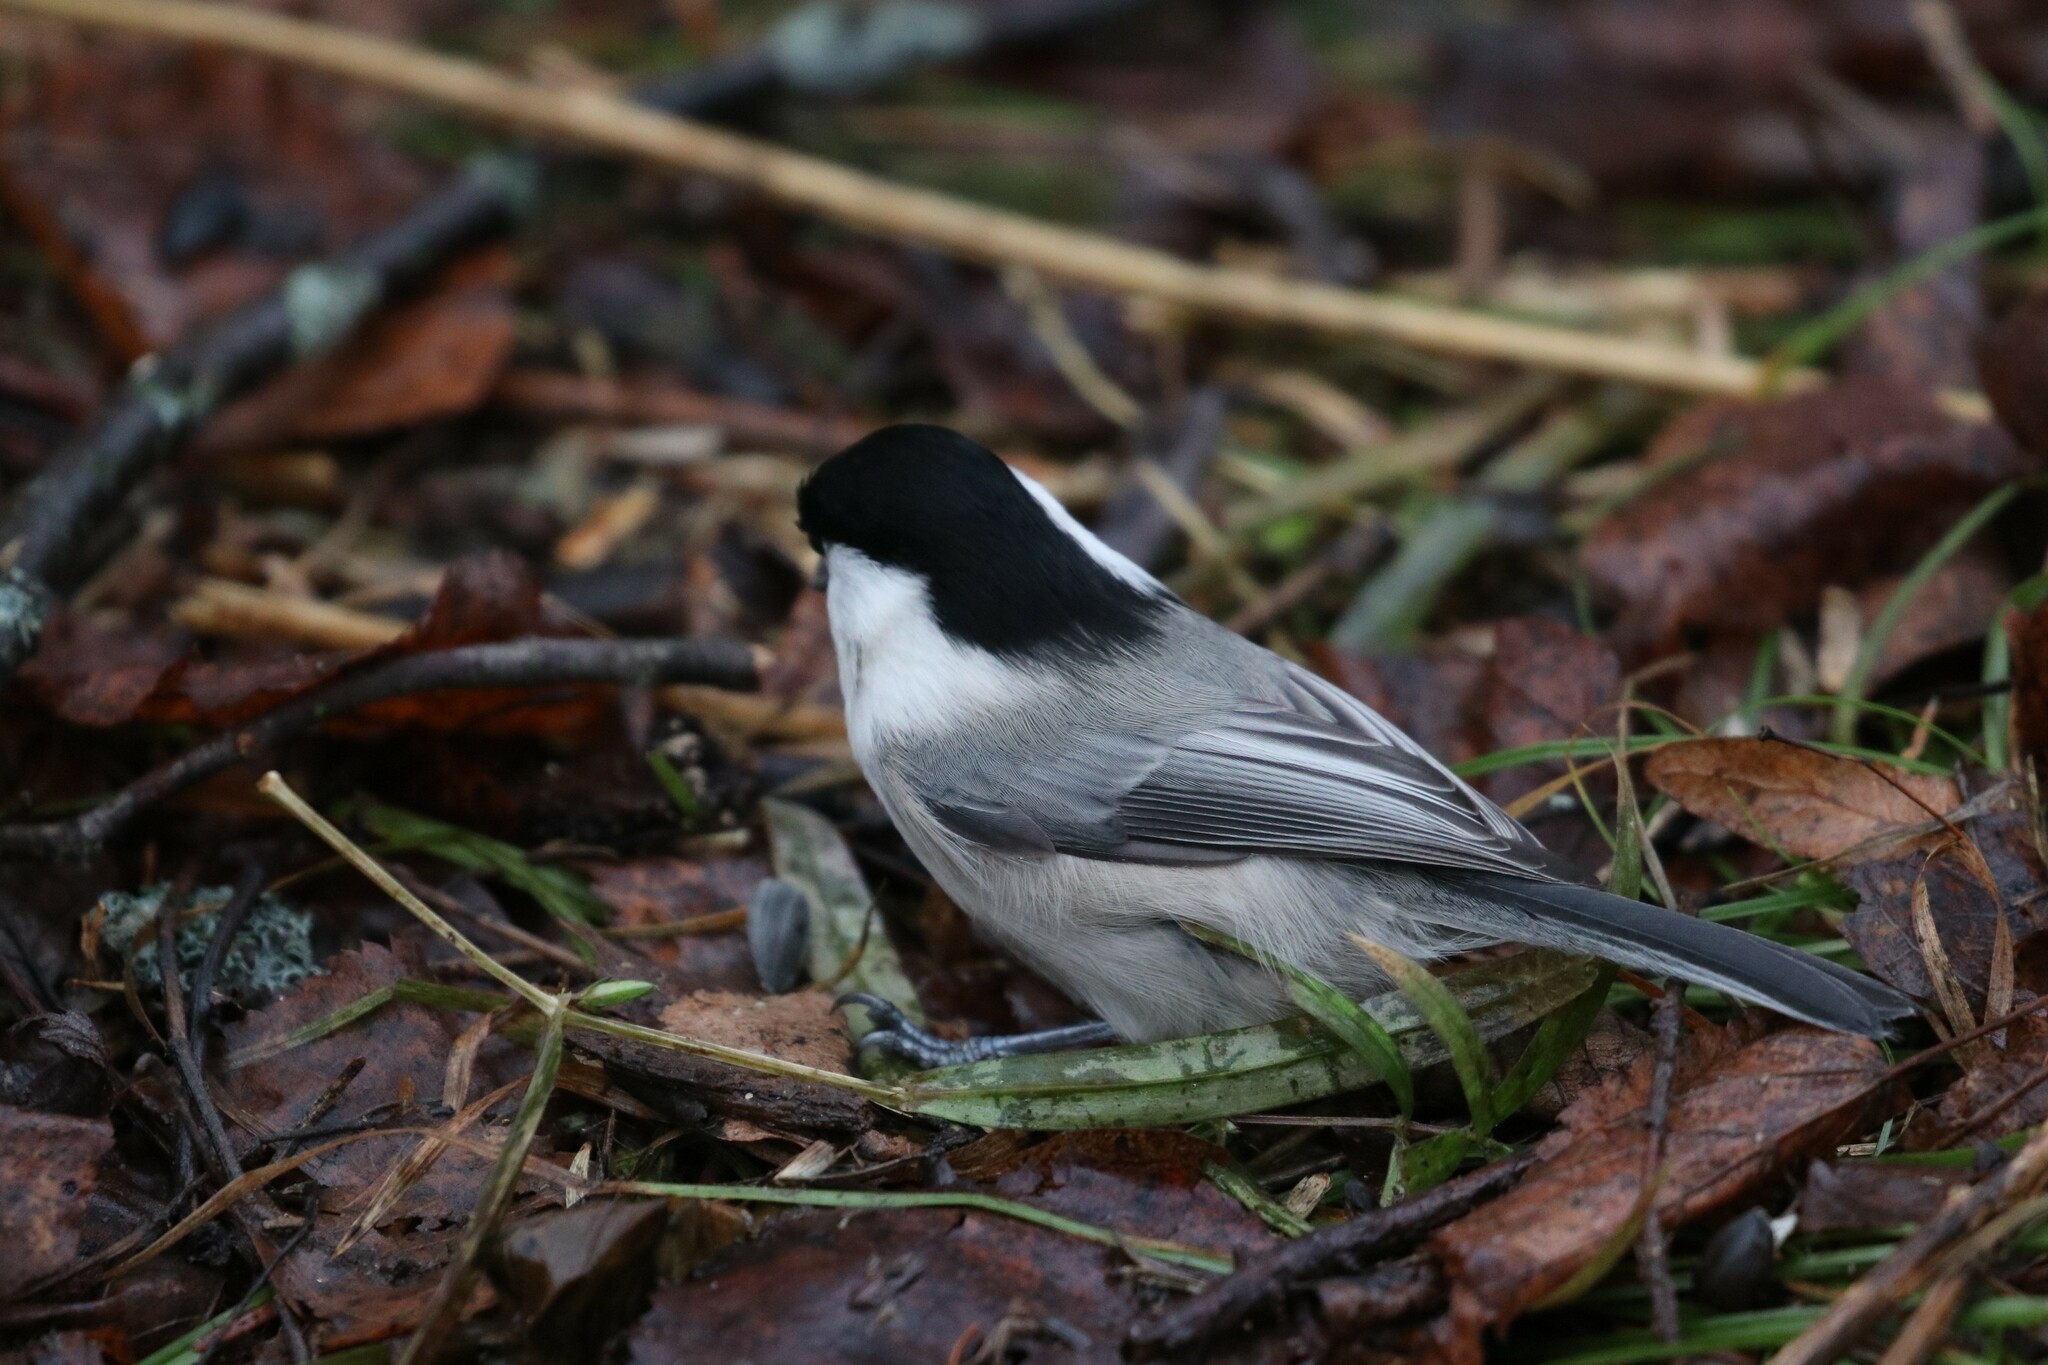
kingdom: Animalia
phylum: Chordata
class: Aves
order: Passeriformes
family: Paridae
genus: Poecile
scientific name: Poecile montanus
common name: Willow tit
